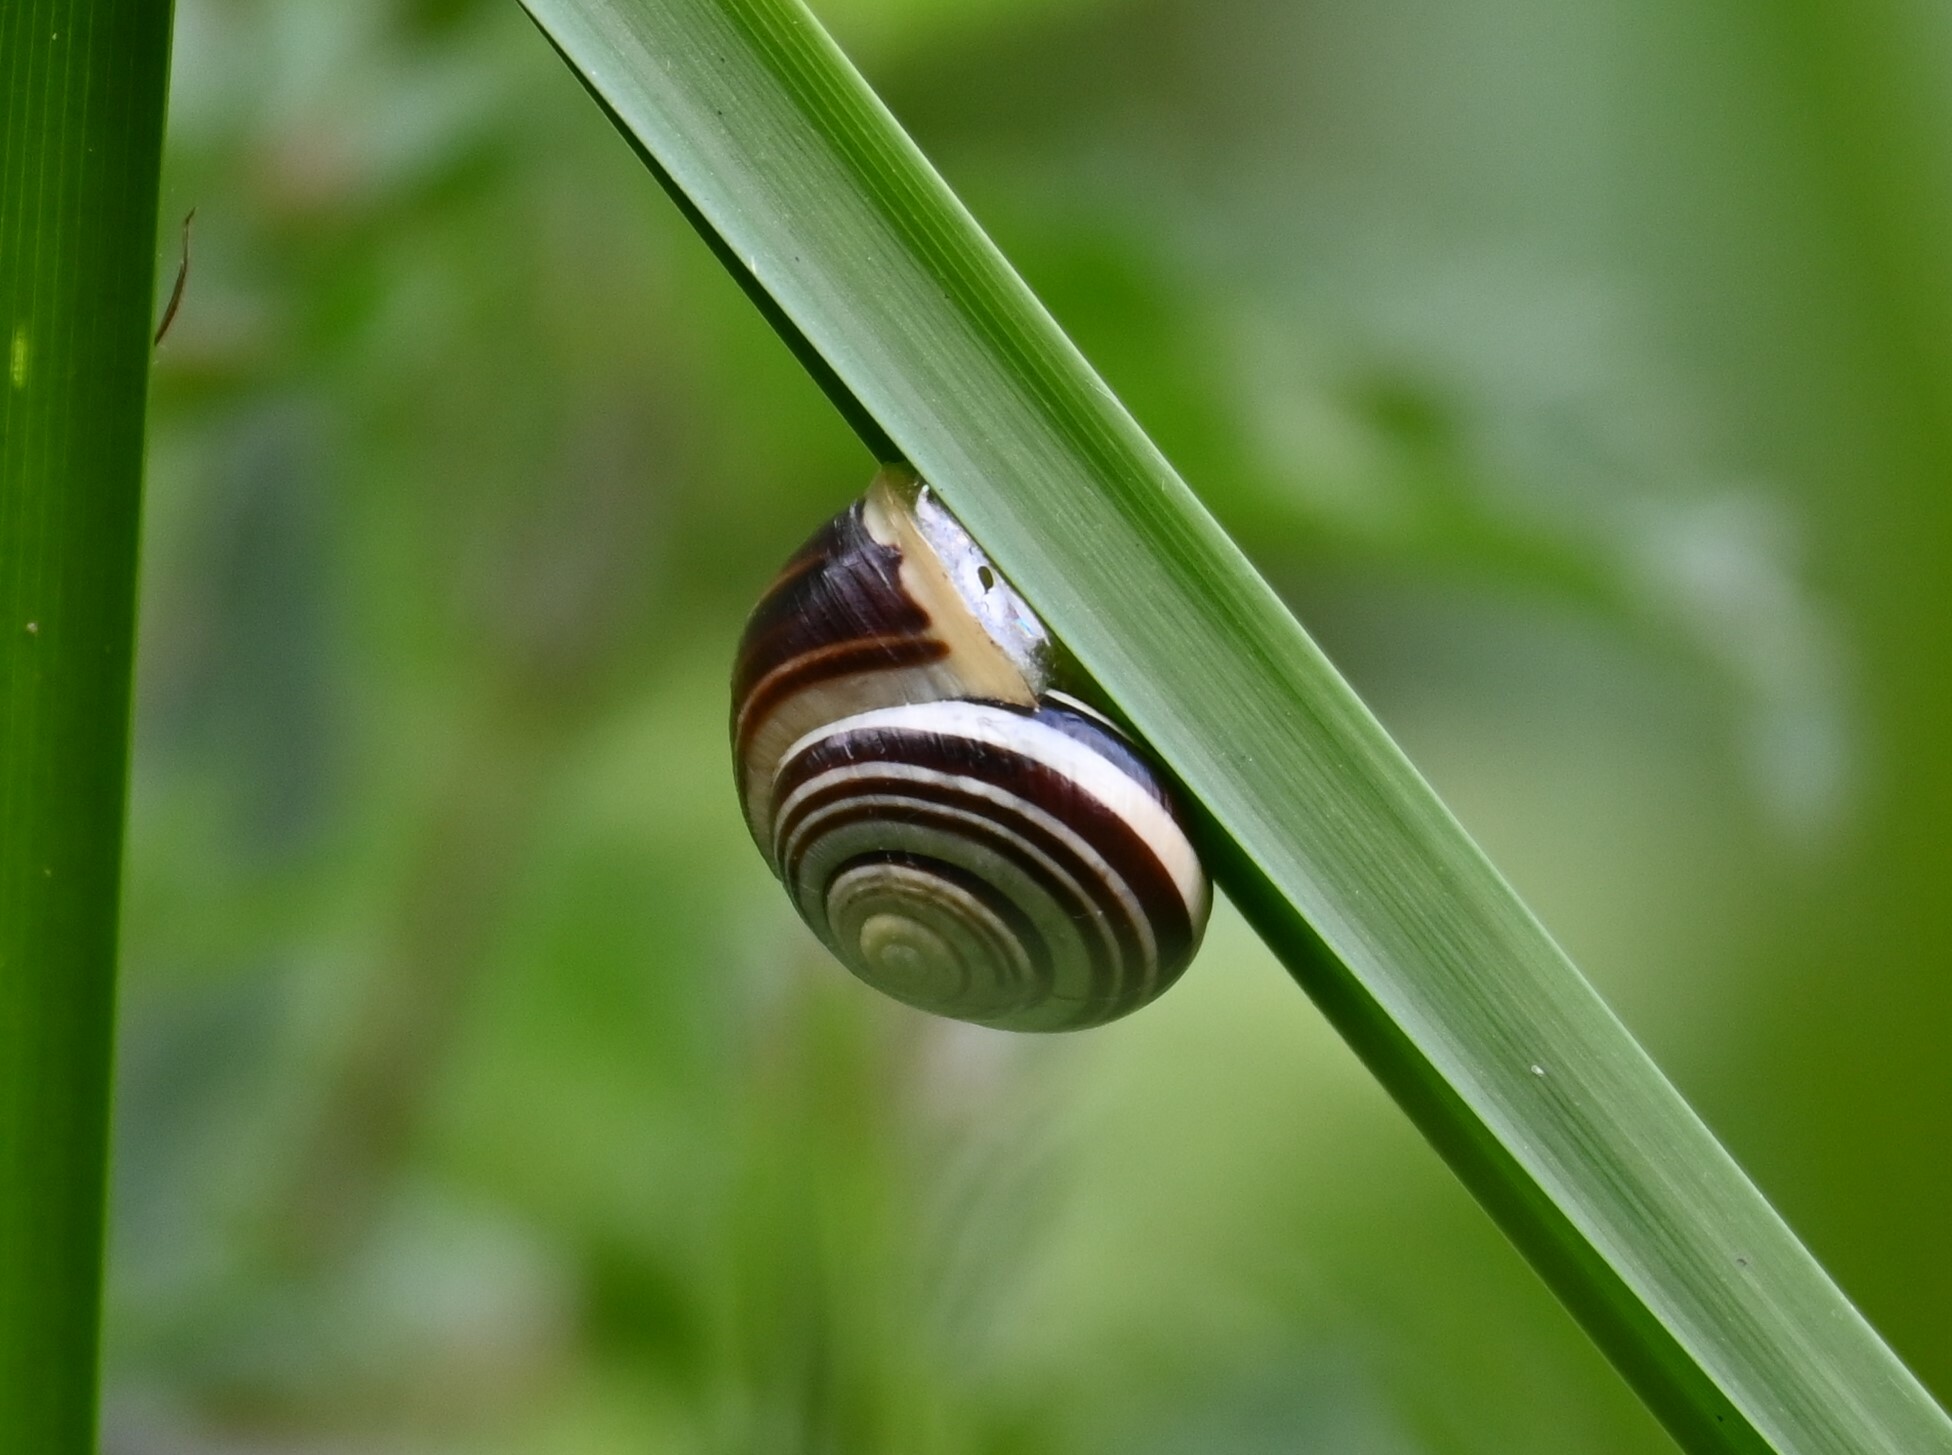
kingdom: Animalia
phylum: Mollusca
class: Gastropoda
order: Stylommatophora
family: Helicidae
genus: Cepaea
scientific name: Cepaea hortensis
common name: White-lip gardensnail
